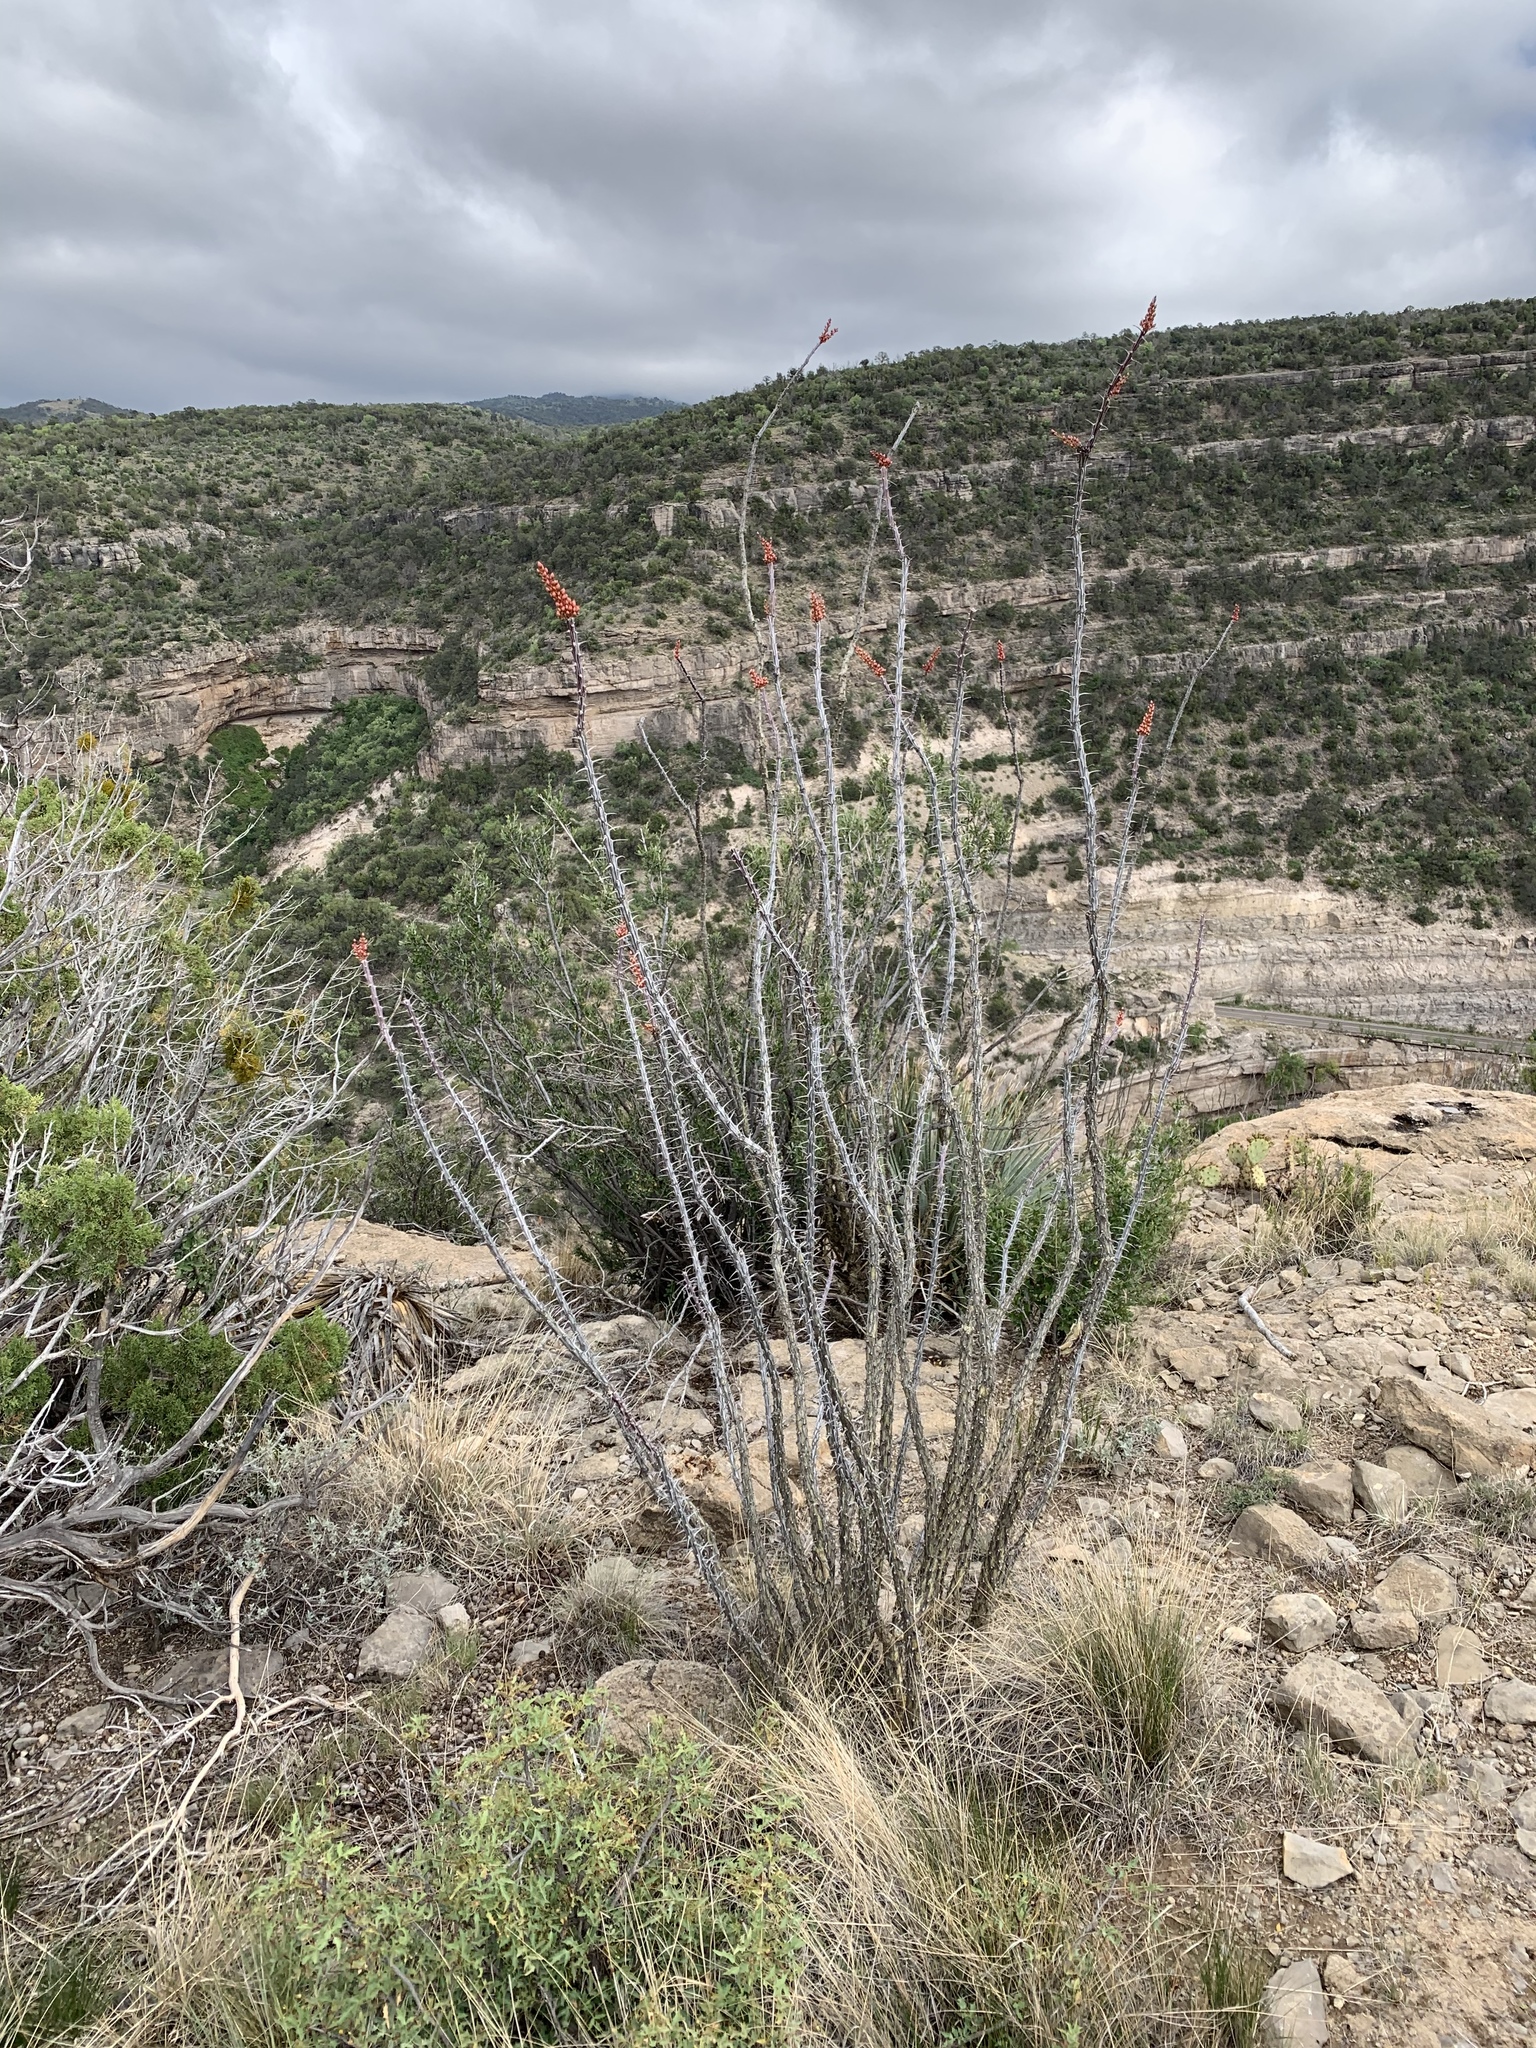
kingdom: Plantae
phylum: Tracheophyta
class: Magnoliopsida
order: Ericales
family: Fouquieriaceae
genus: Fouquieria
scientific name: Fouquieria splendens
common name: Vine-cactus
